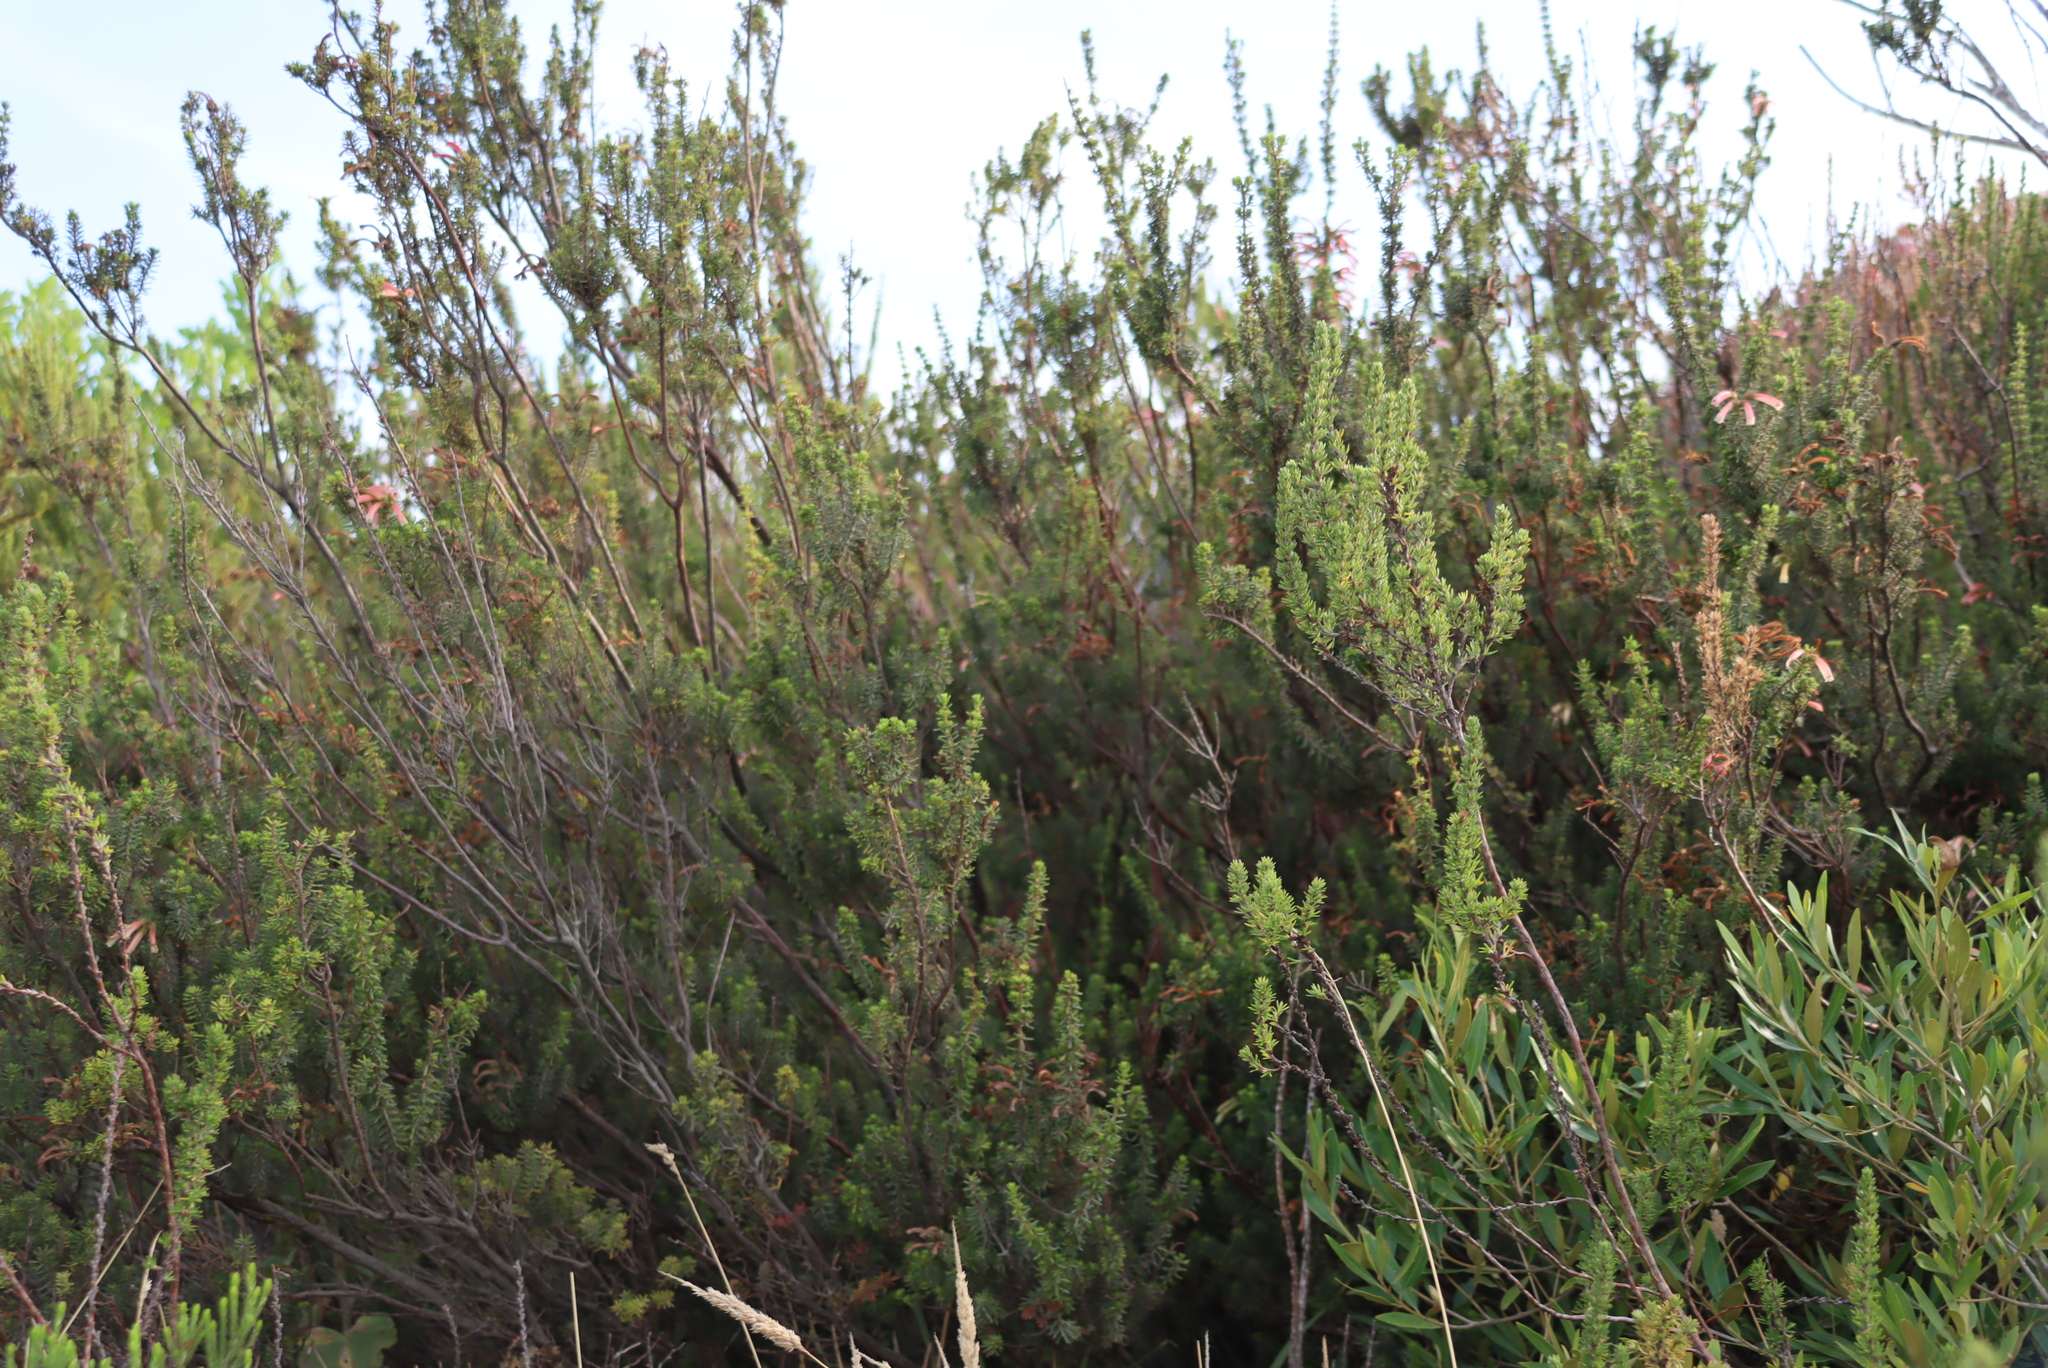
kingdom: Plantae
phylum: Tracheophyta
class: Magnoliopsida
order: Ericales
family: Ericaceae
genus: Erica
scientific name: Erica glandulosa
